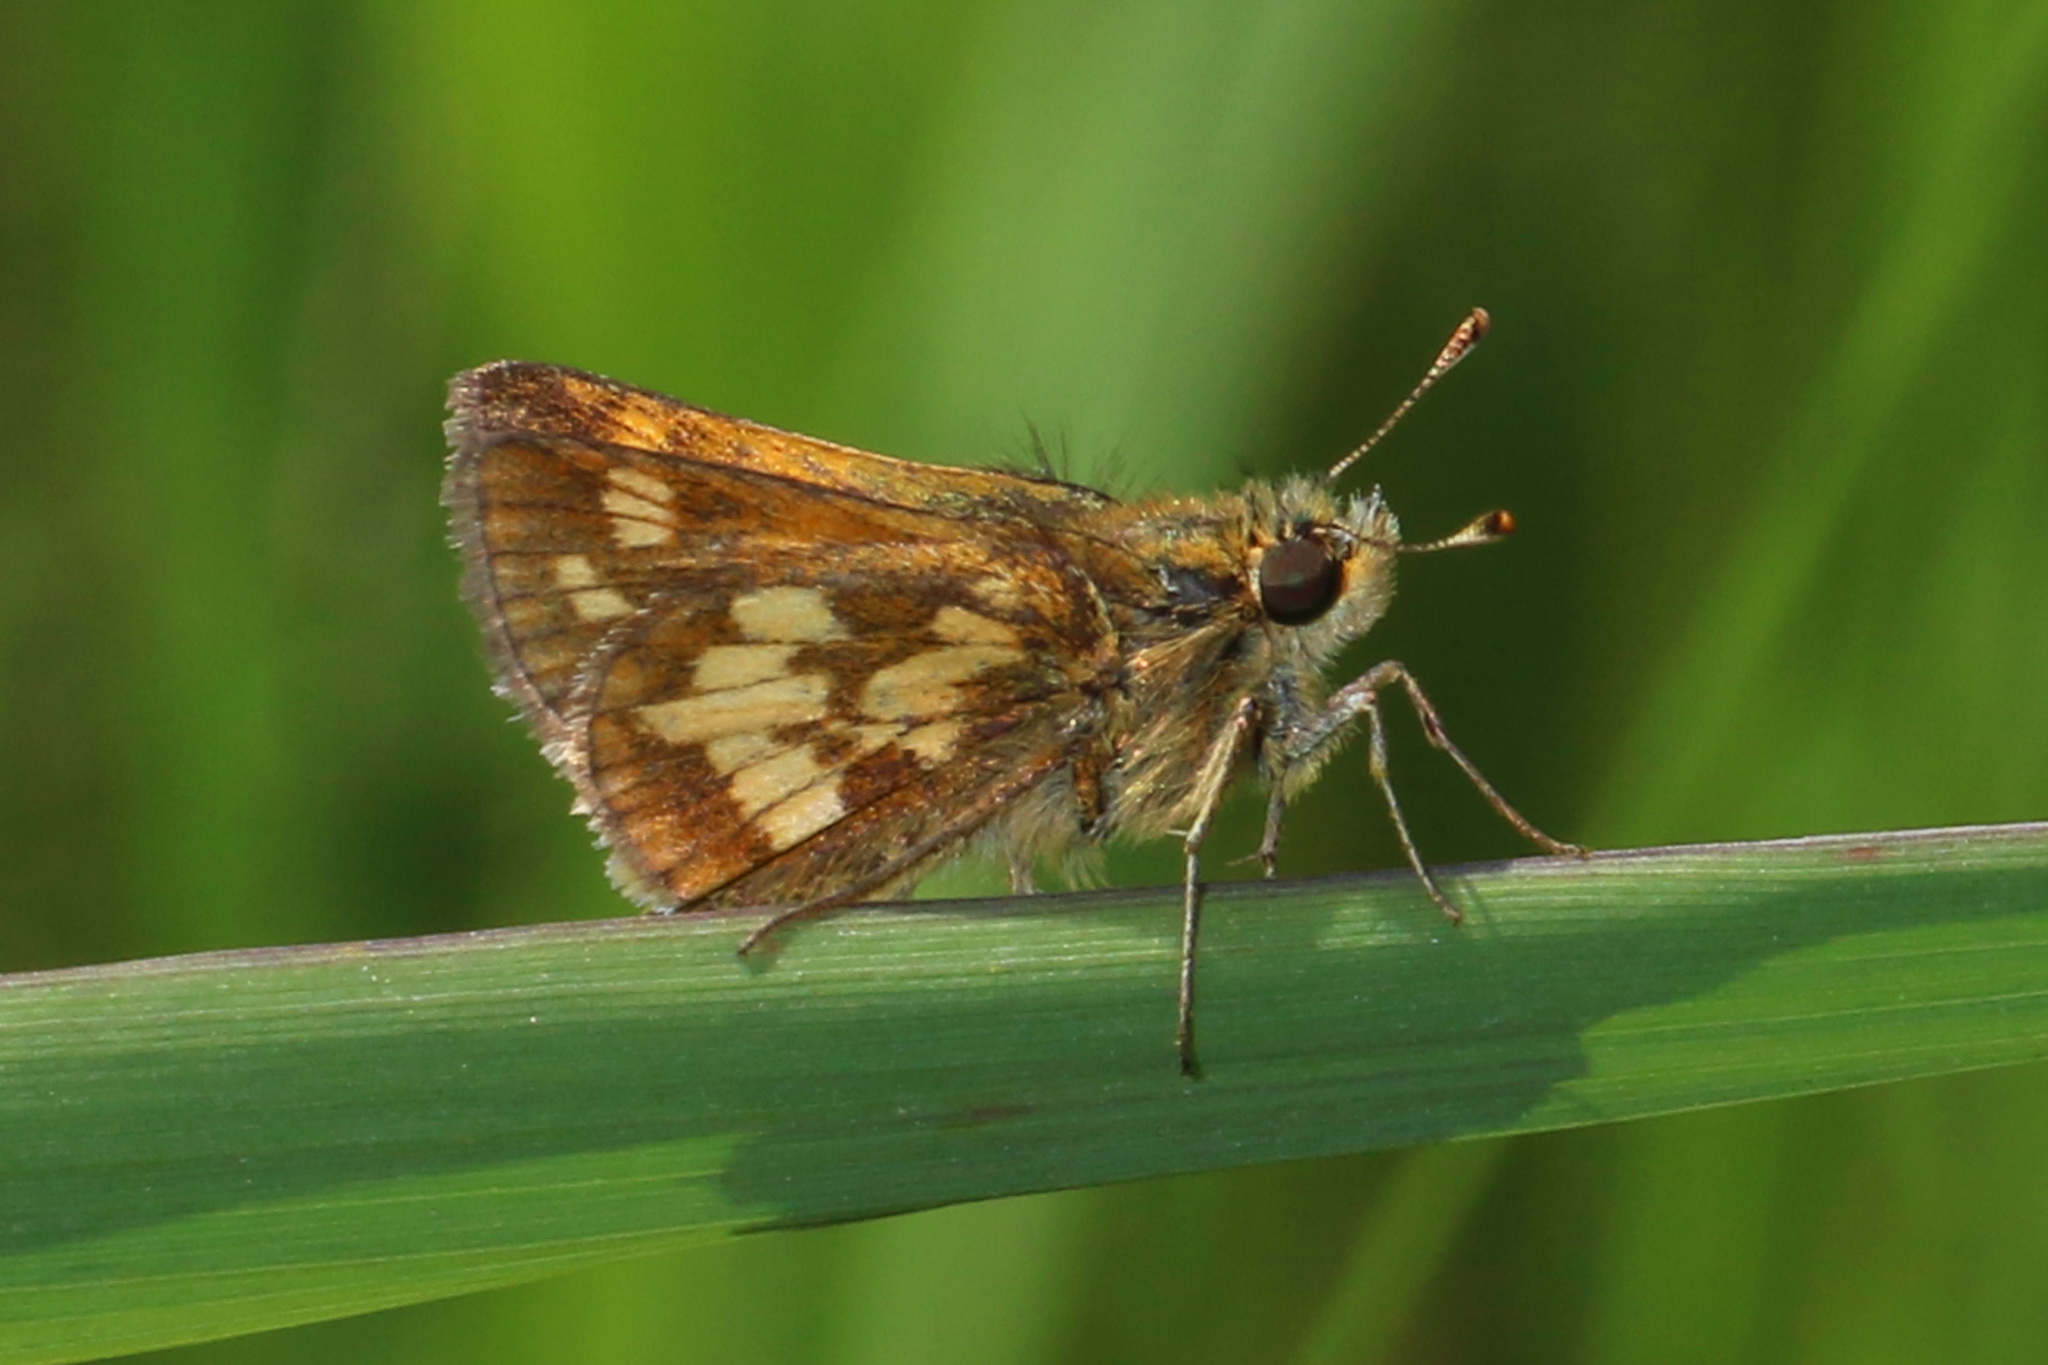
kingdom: Animalia
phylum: Arthropoda
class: Insecta
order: Lepidoptera
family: Hesperiidae
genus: Polites
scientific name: Polites coras
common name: Peck's skipper
